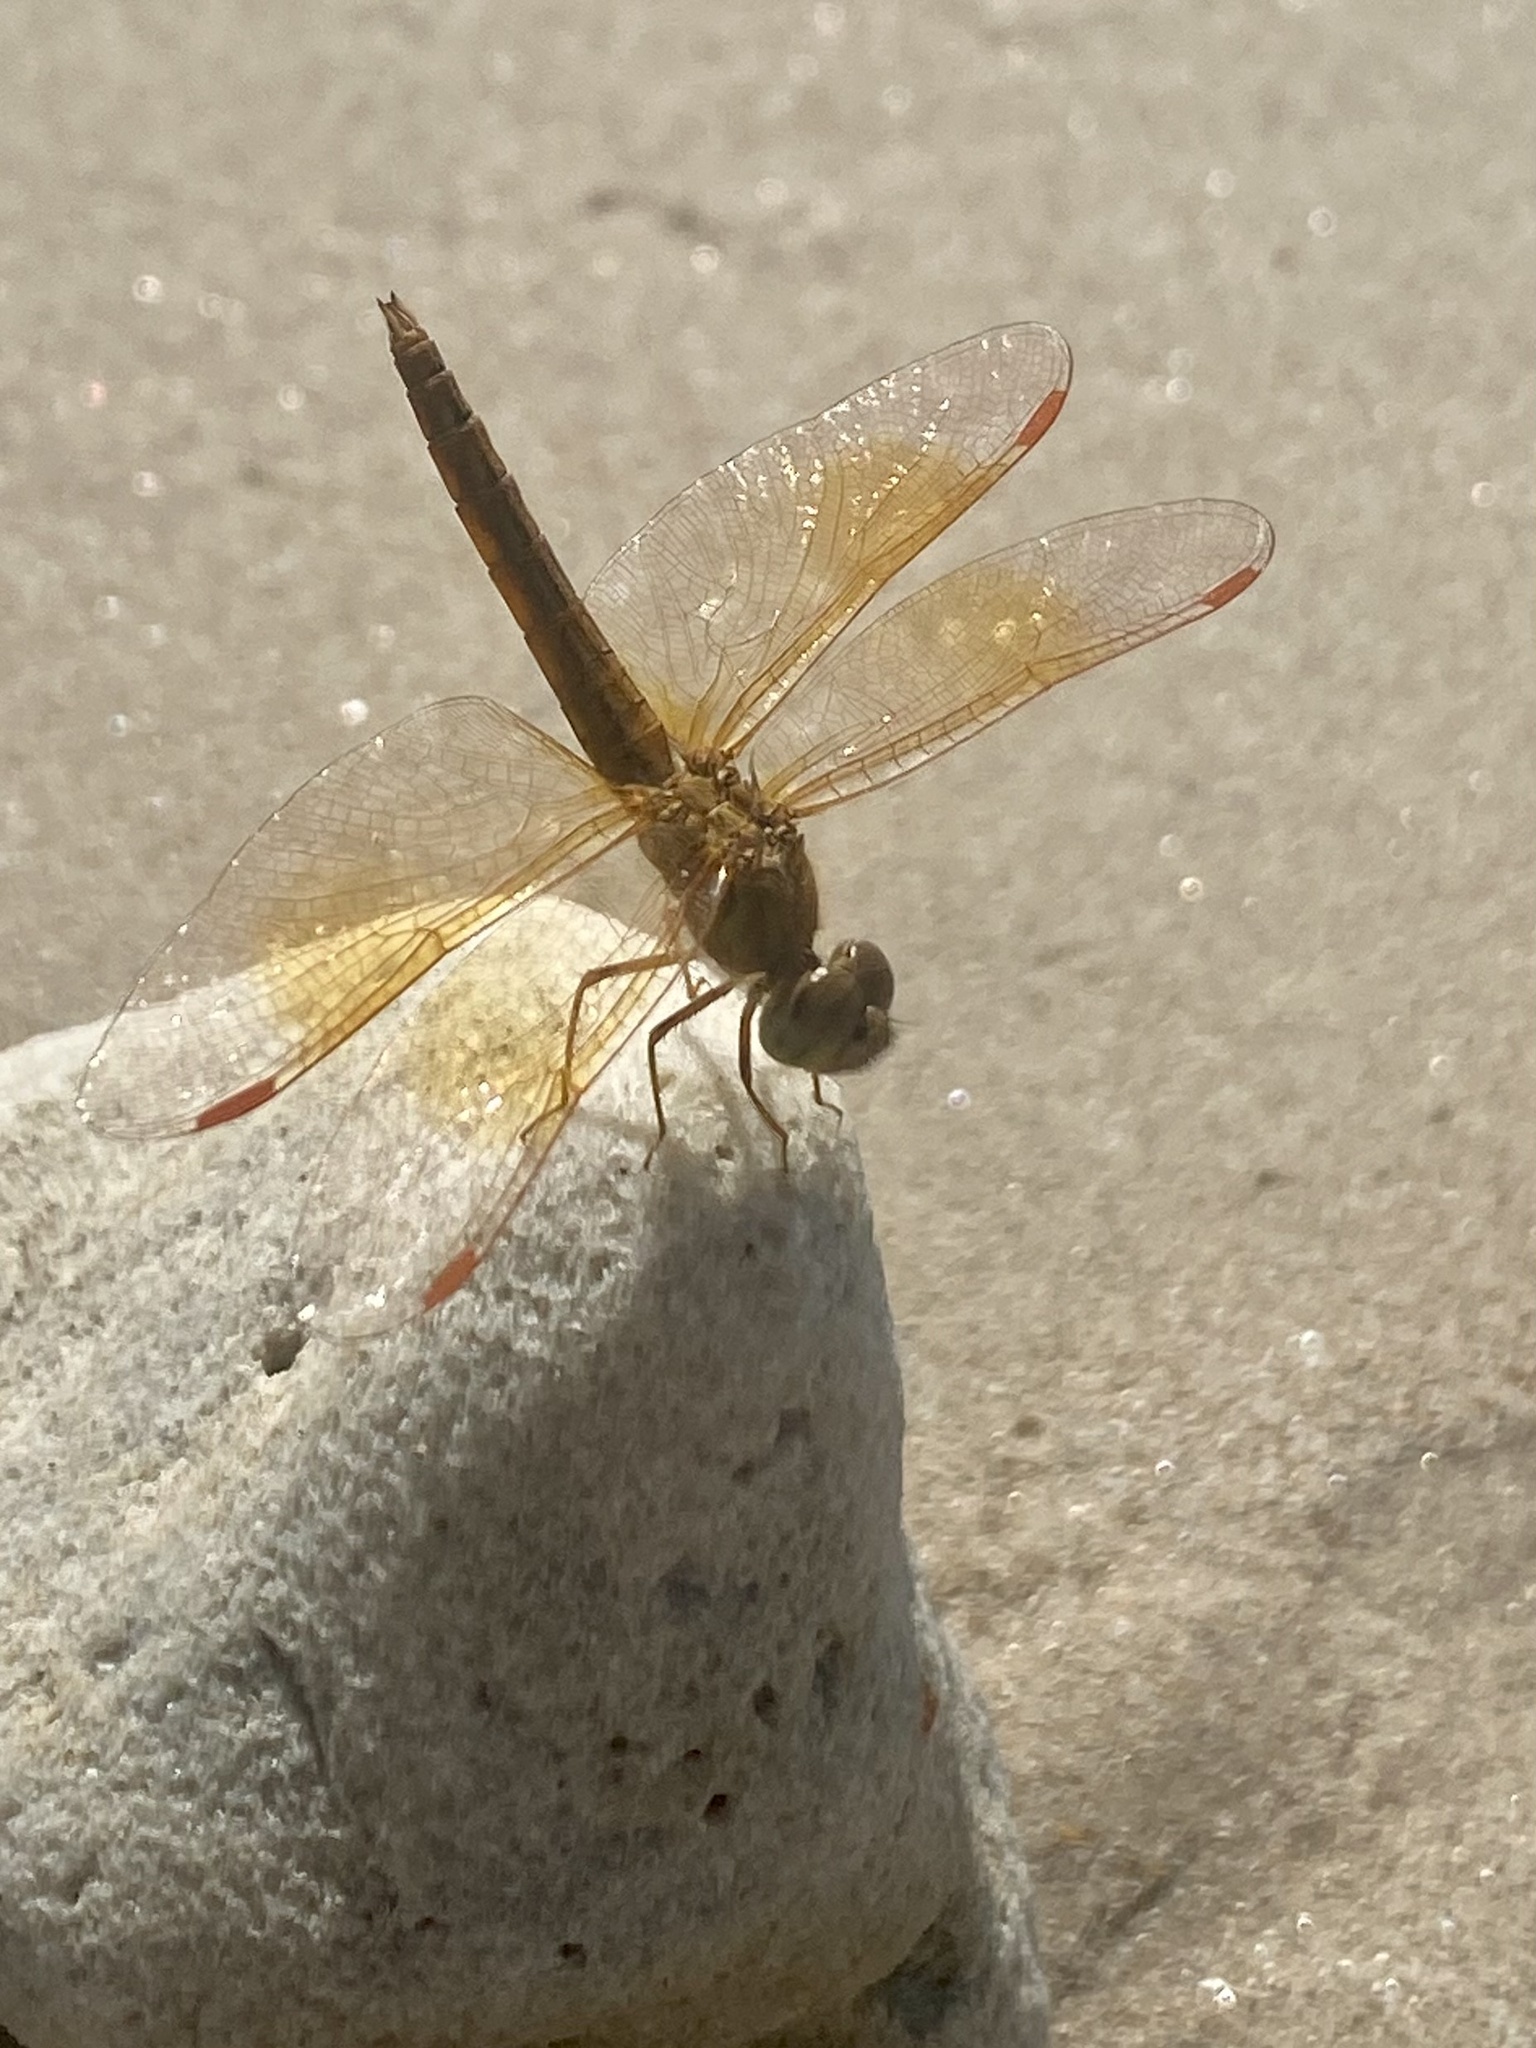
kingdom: Animalia
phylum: Arthropoda
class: Insecta
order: Odonata
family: Libellulidae
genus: Brachythemis
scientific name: Brachythemis contaminata
